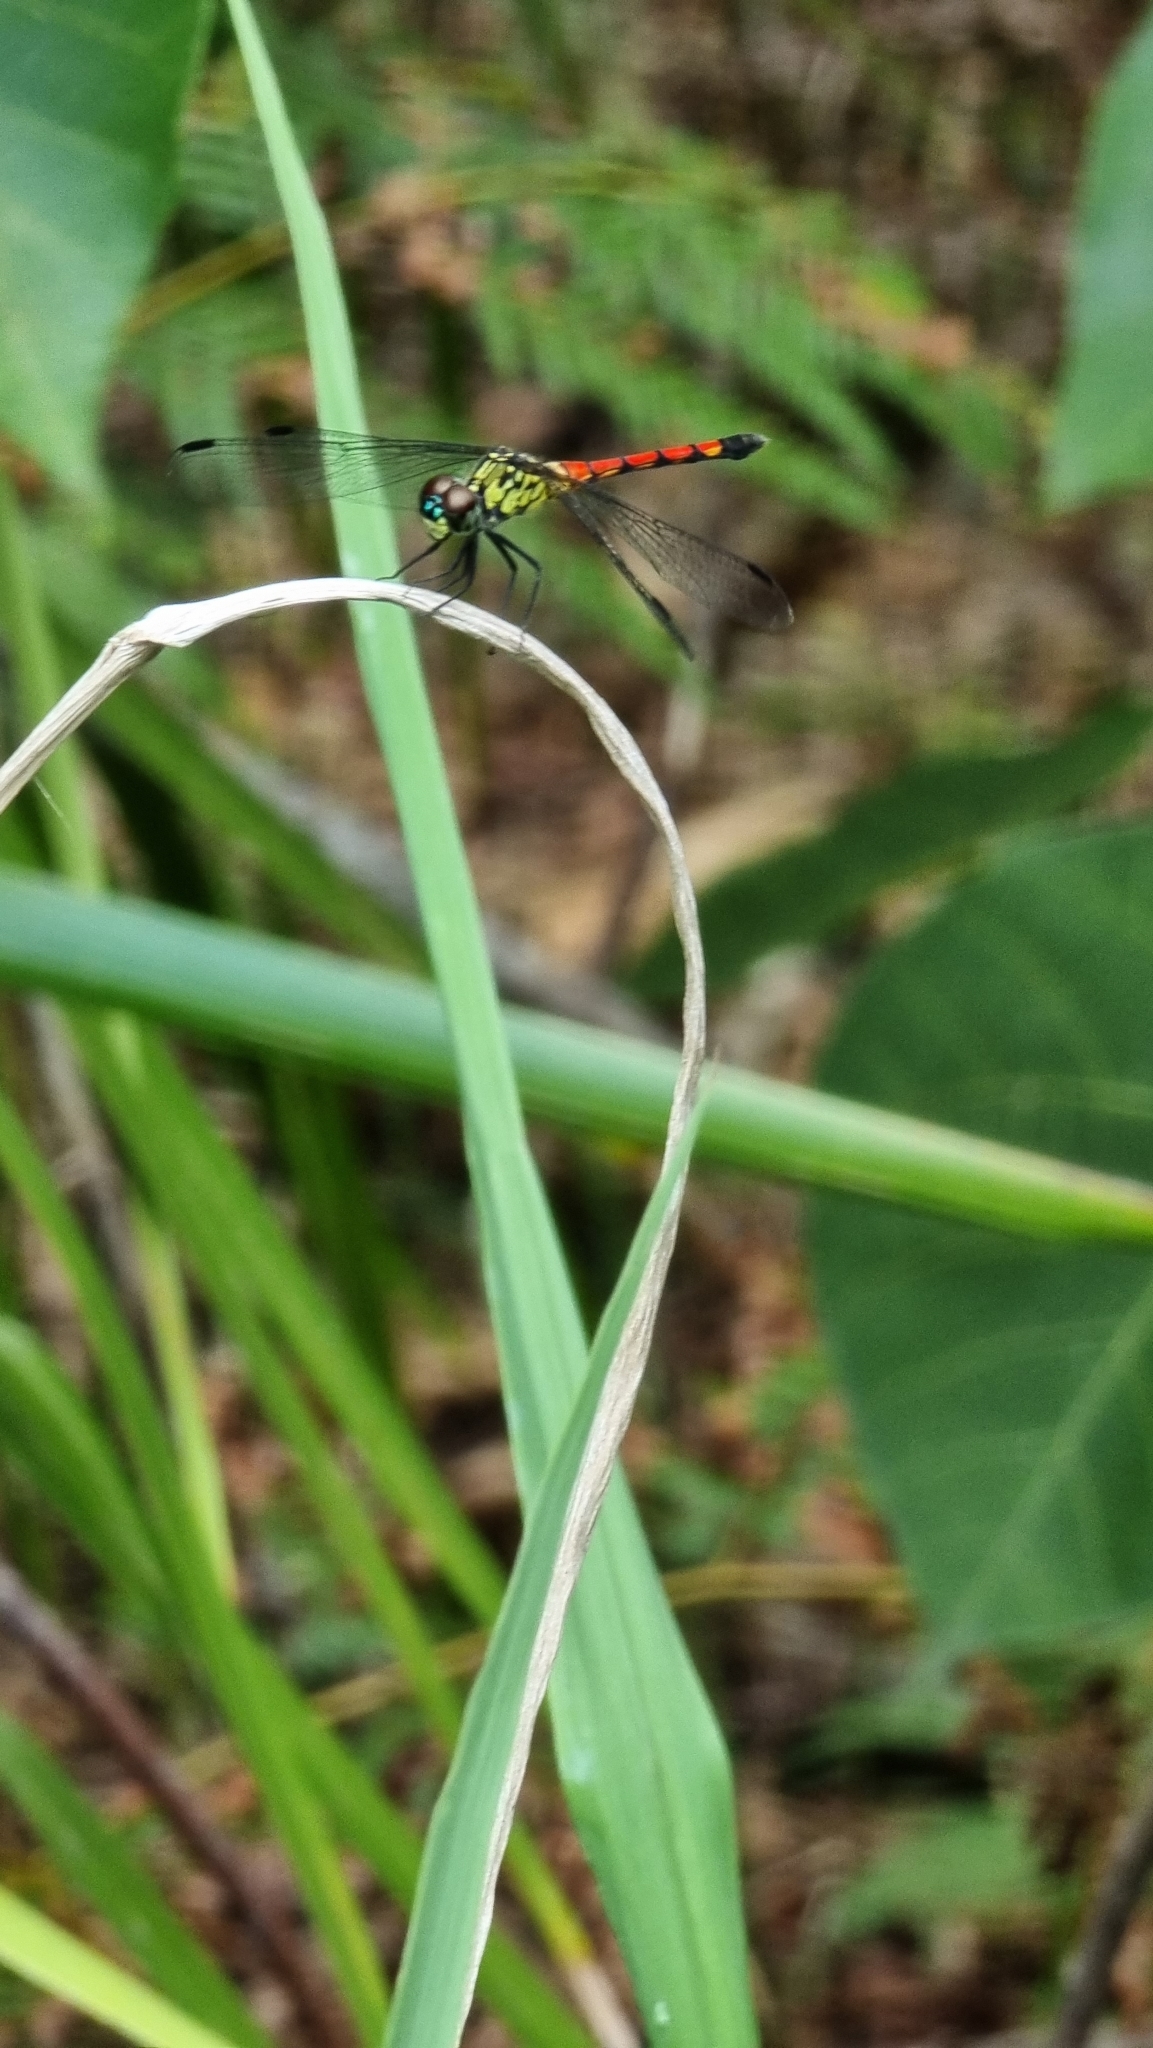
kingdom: Animalia
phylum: Arthropoda
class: Insecta
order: Odonata
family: Libellulidae
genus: Agrionoptera
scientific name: Agrionoptera insignis
